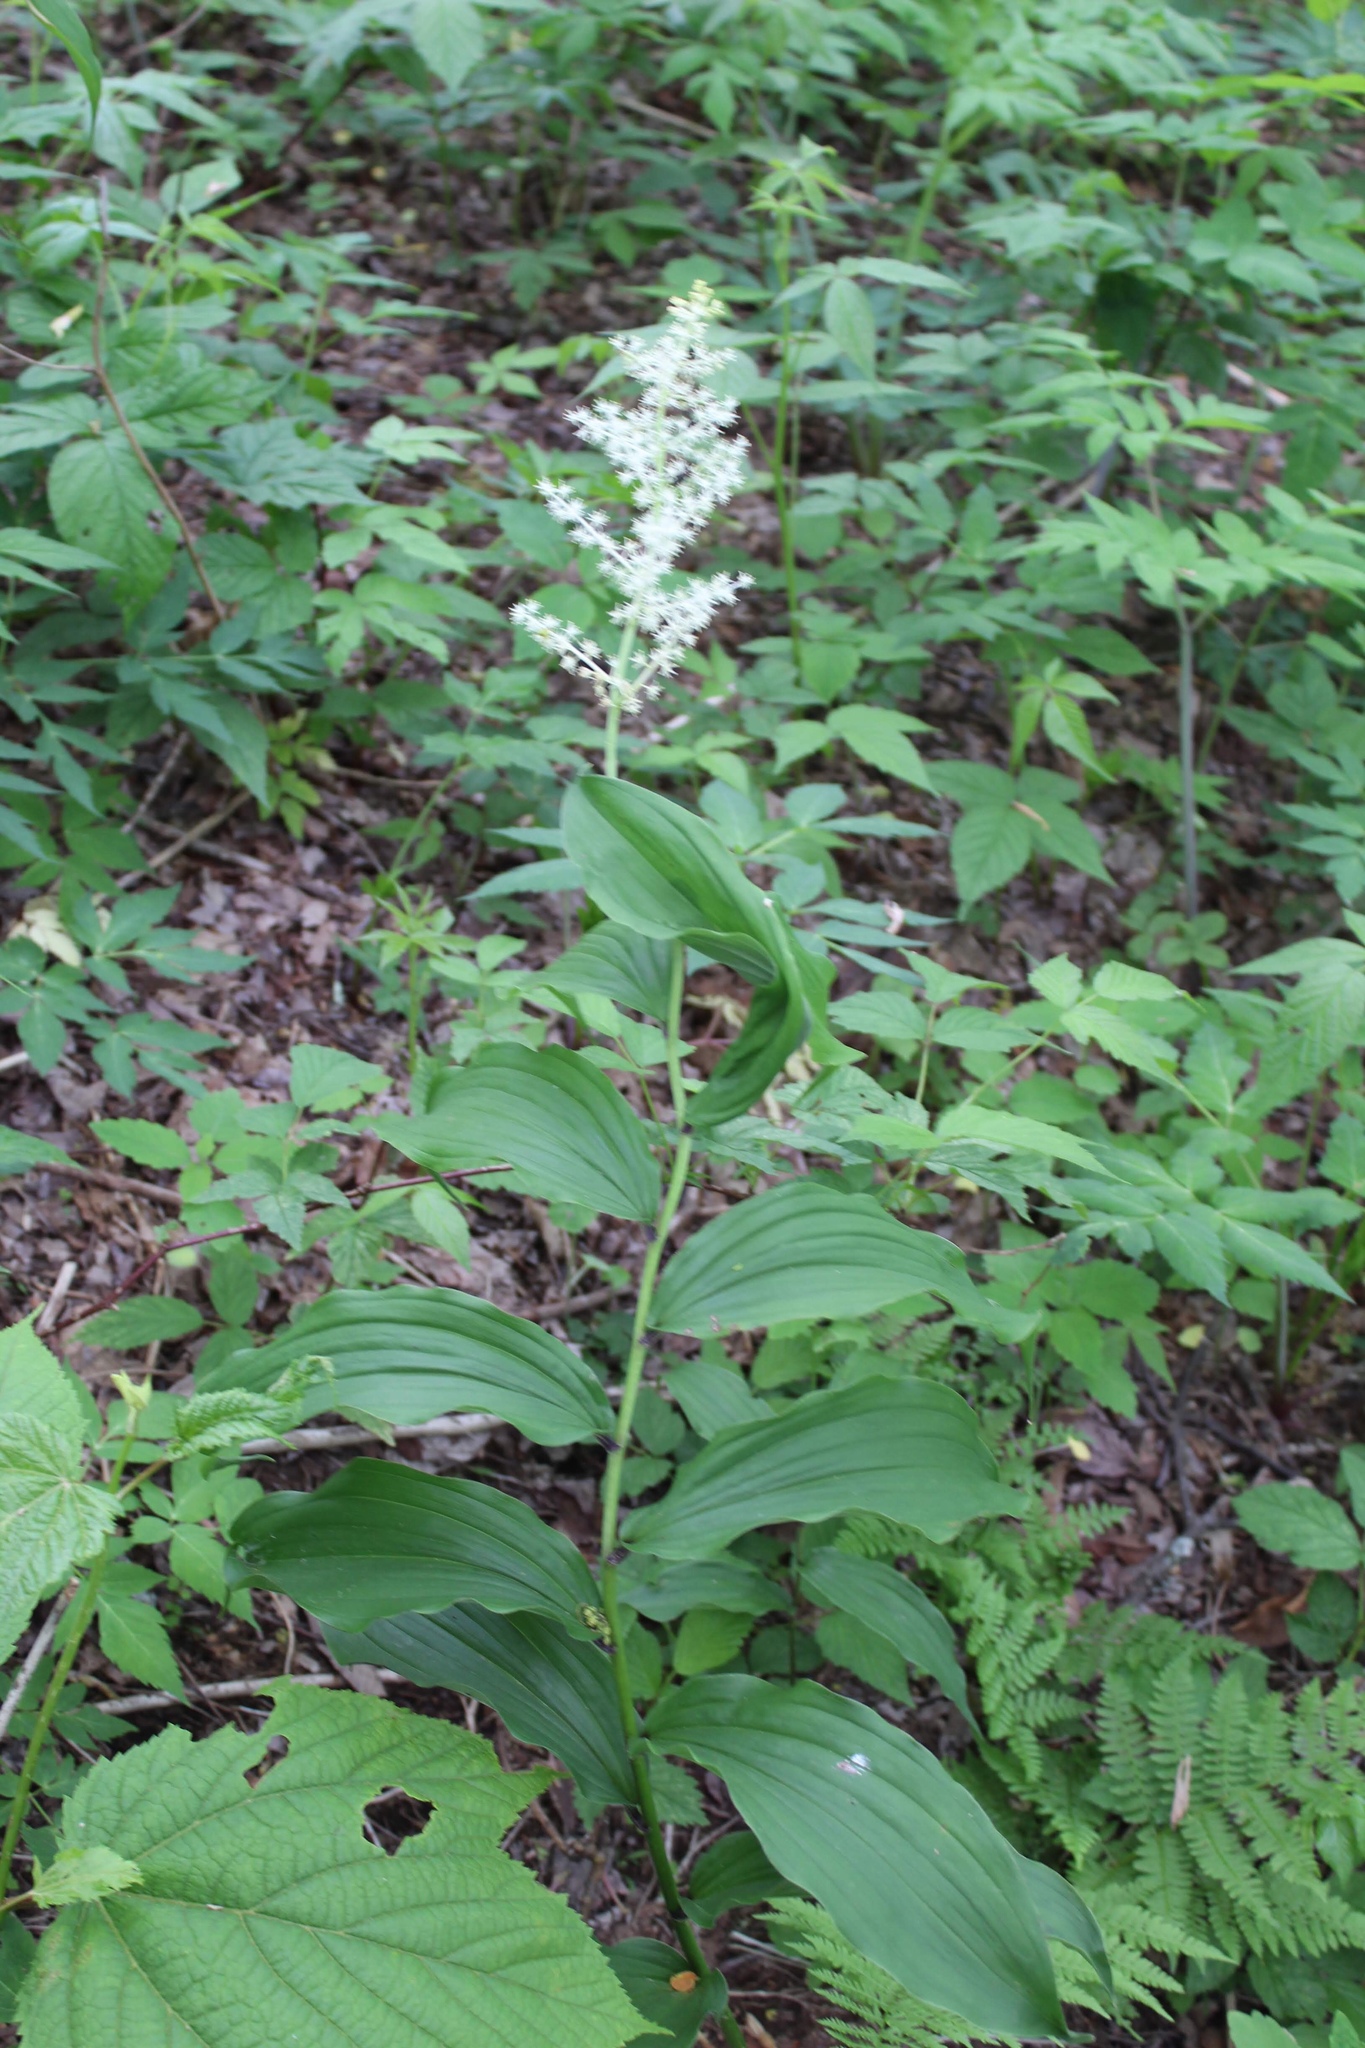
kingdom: Plantae
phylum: Tracheophyta
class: Liliopsida
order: Asparagales
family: Asparagaceae
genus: Maianthemum
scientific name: Maianthemum racemosum
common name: False spikenard
